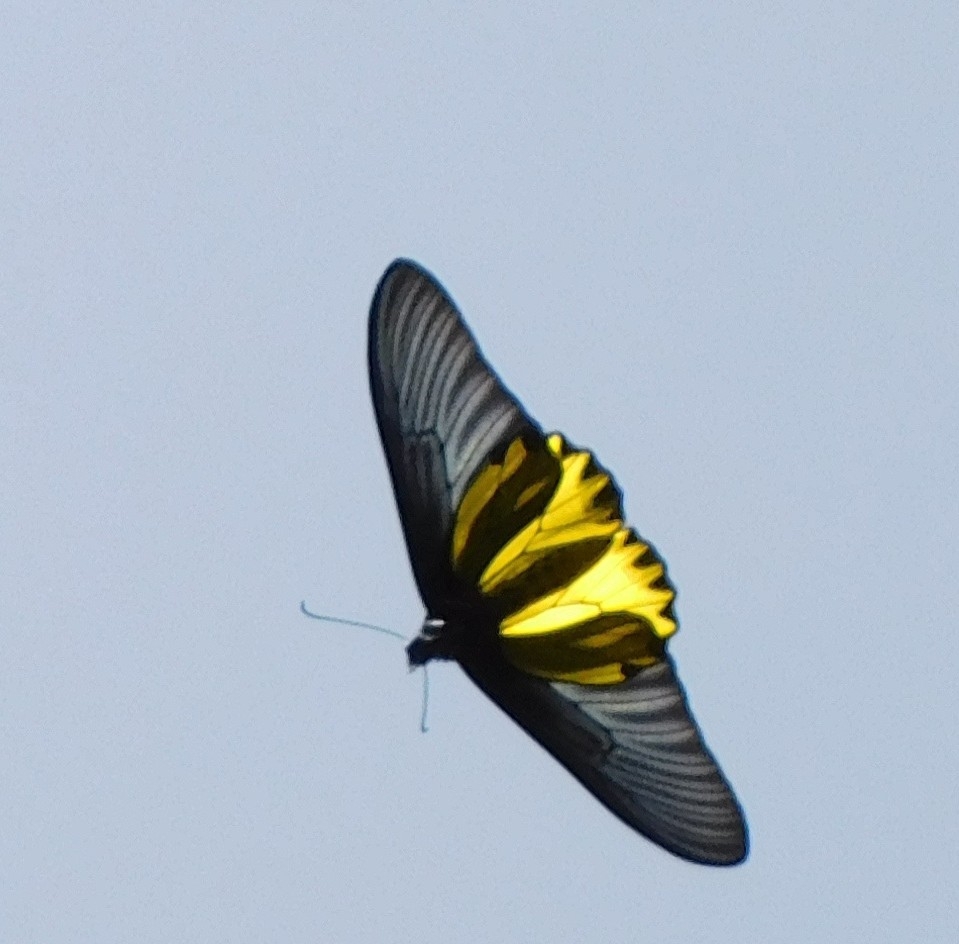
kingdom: Animalia
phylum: Arthropoda
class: Insecta
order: Lepidoptera
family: Papilionidae
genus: Troides
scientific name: Troides aeacus
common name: Golden birdwing
